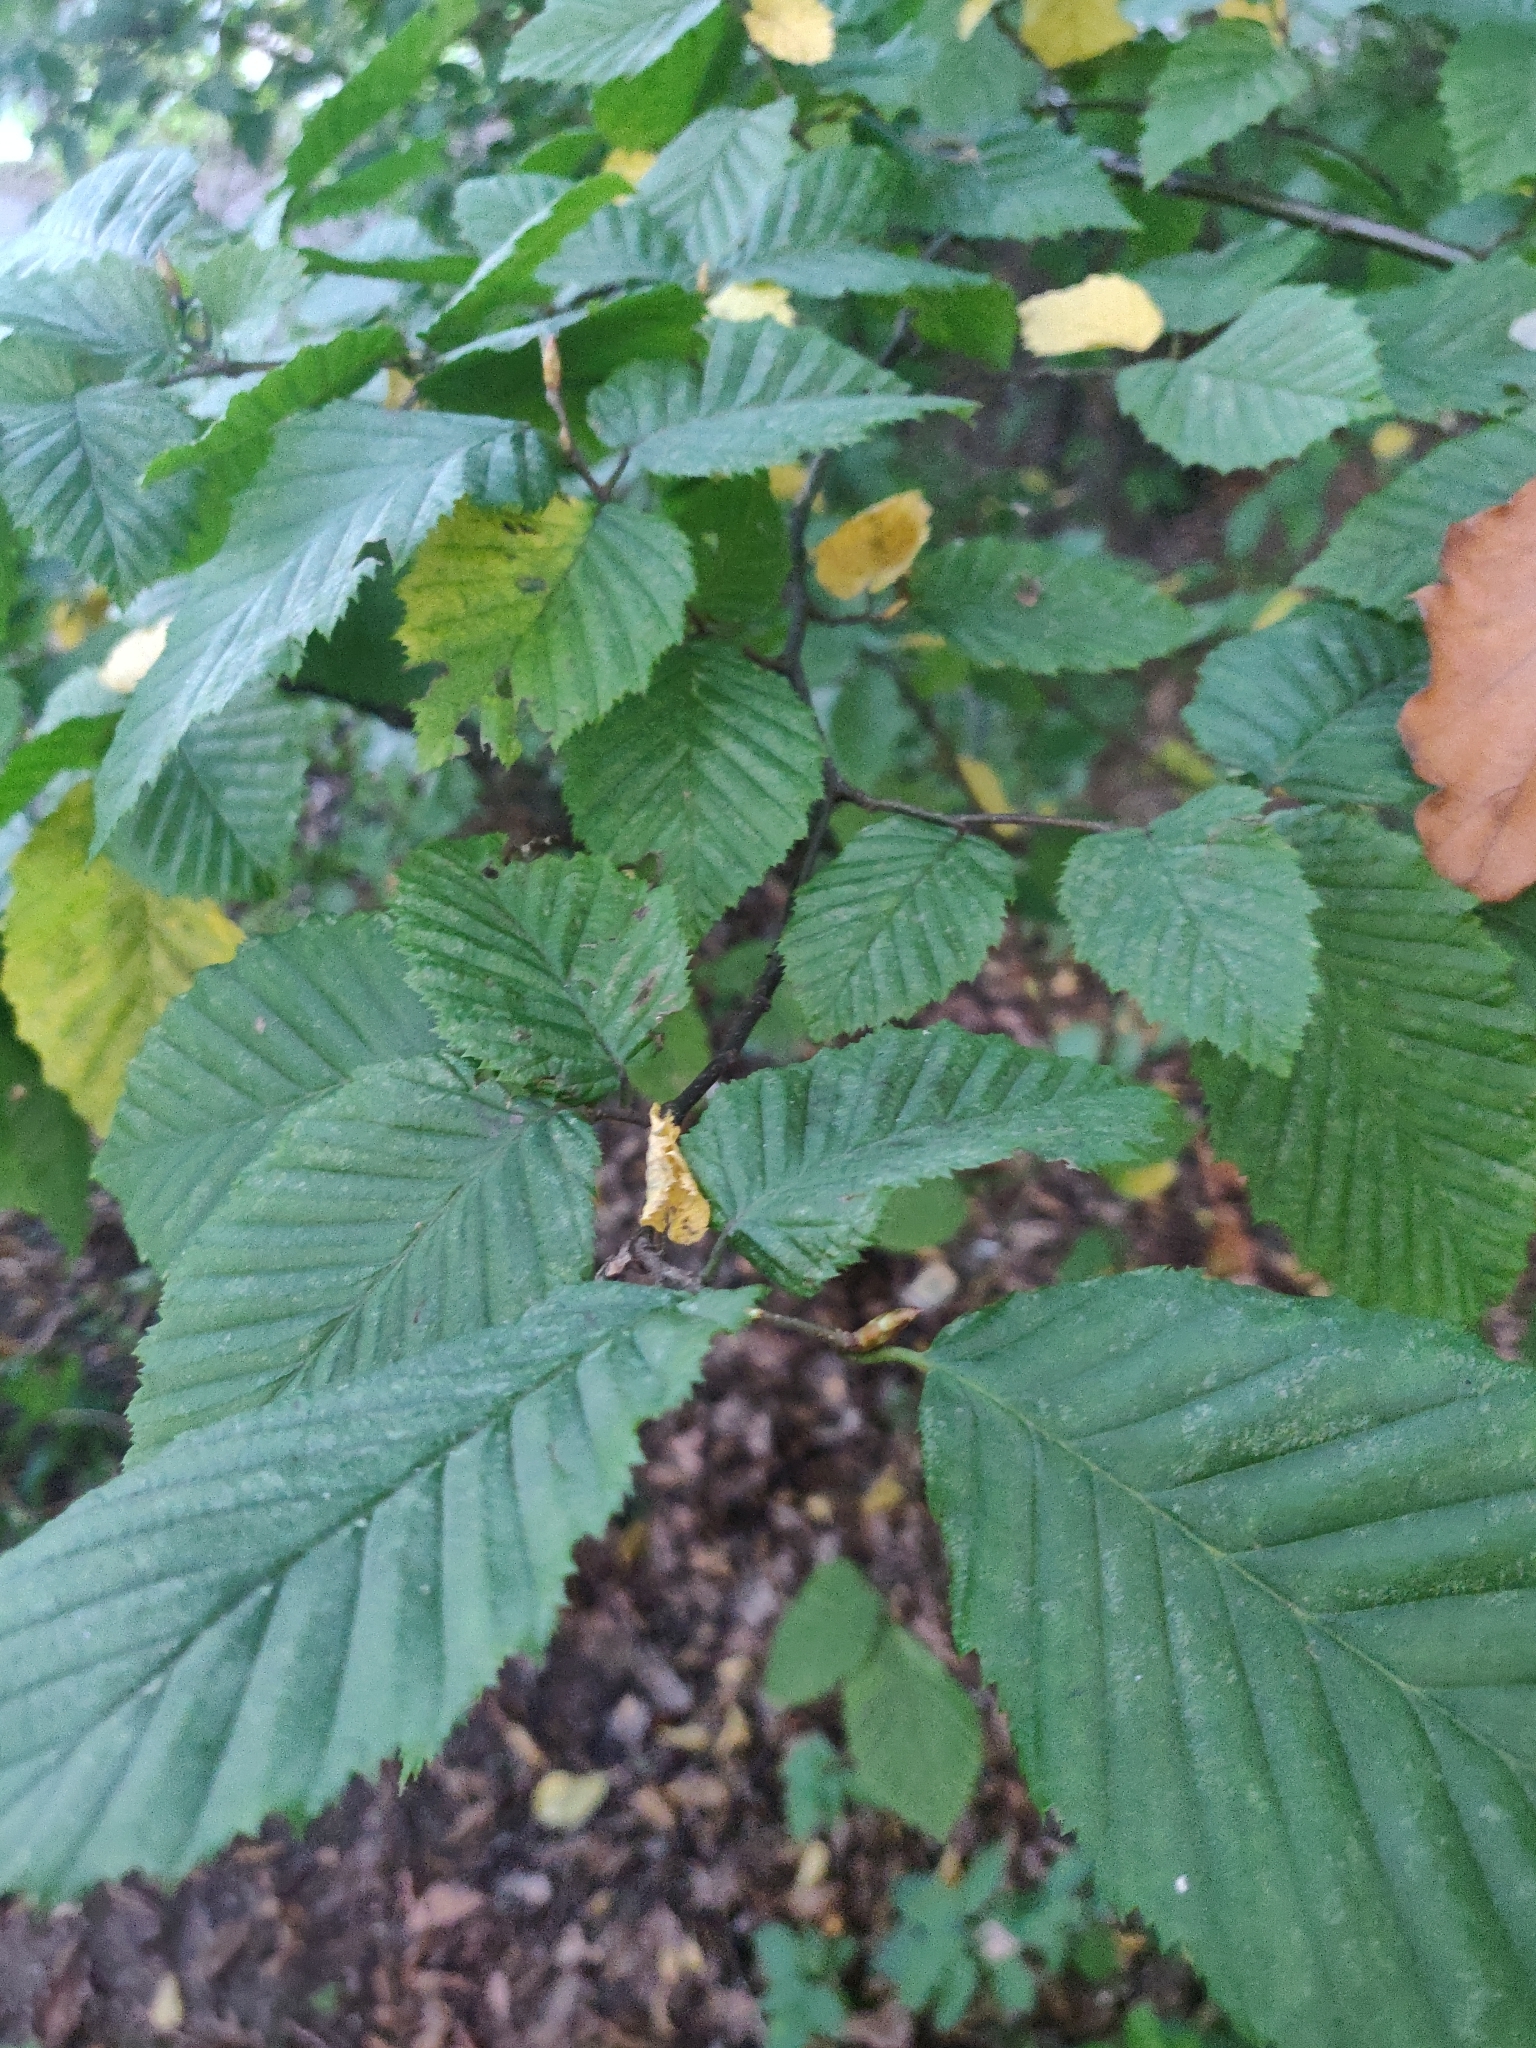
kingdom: Plantae
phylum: Tracheophyta
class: Magnoliopsida
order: Fagales
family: Betulaceae
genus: Carpinus
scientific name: Carpinus betulus
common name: Hornbeam
